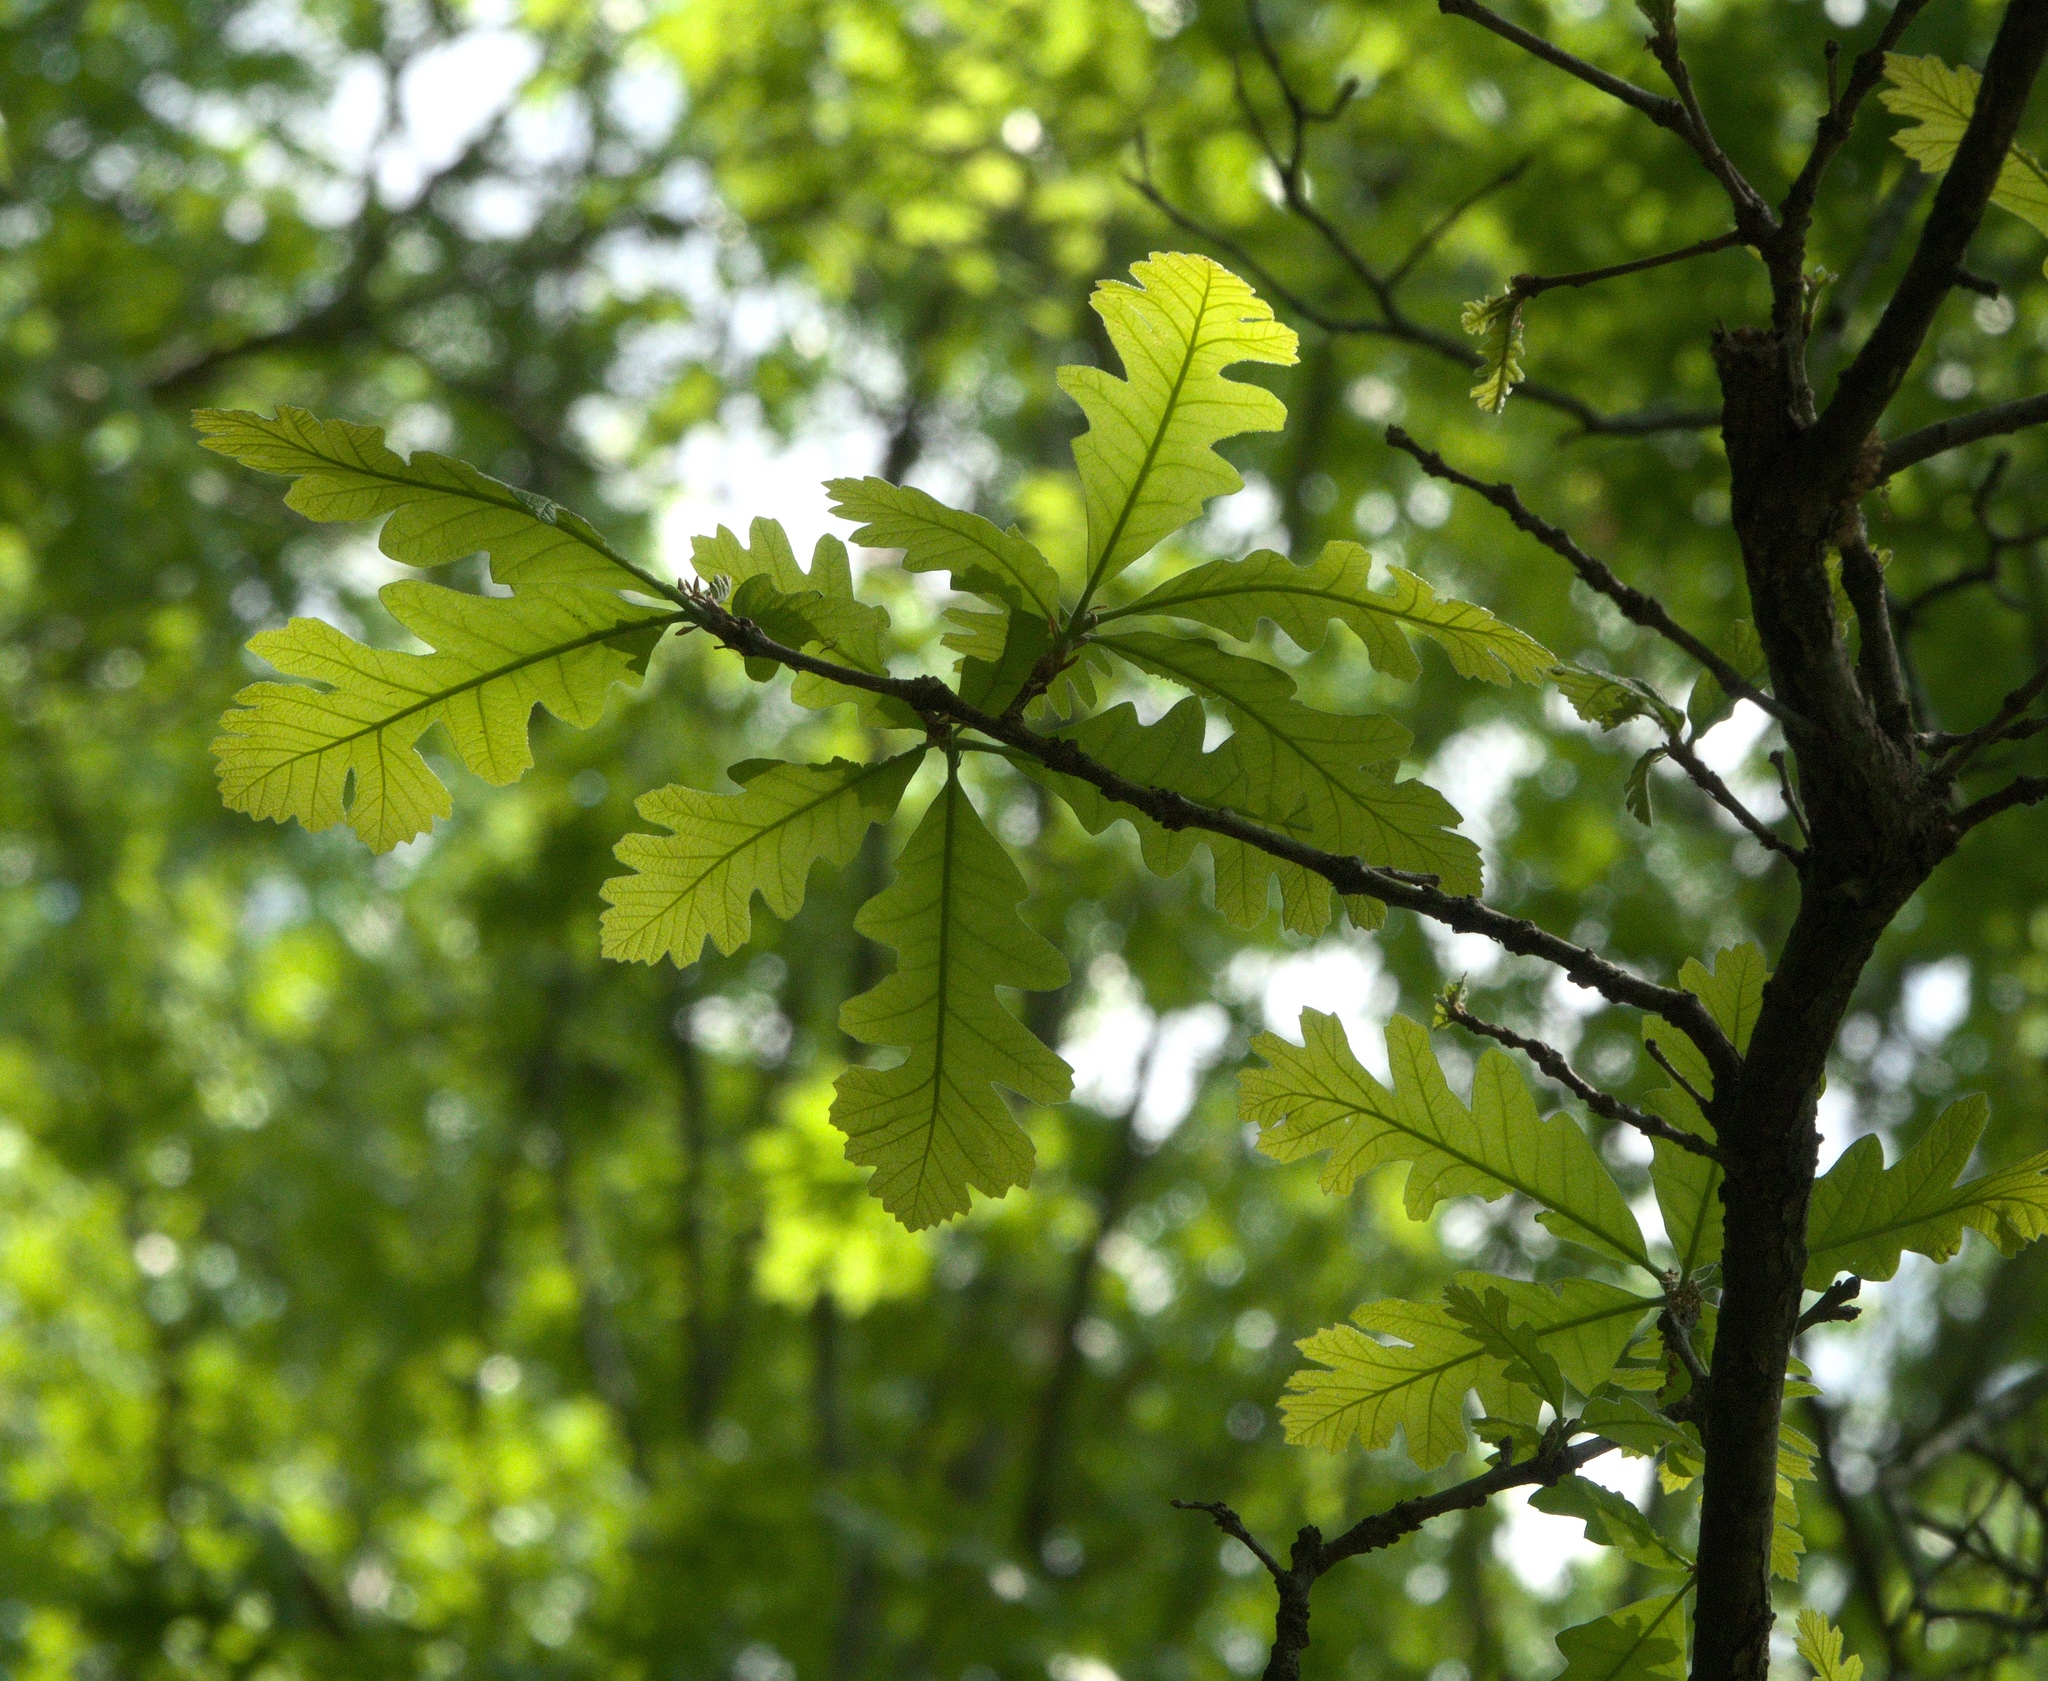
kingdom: Plantae
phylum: Tracheophyta
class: Magnoliopsida
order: Fagales
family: Fagaceae
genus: Quercus
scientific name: Quercus macrocarpa
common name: Bur oak
